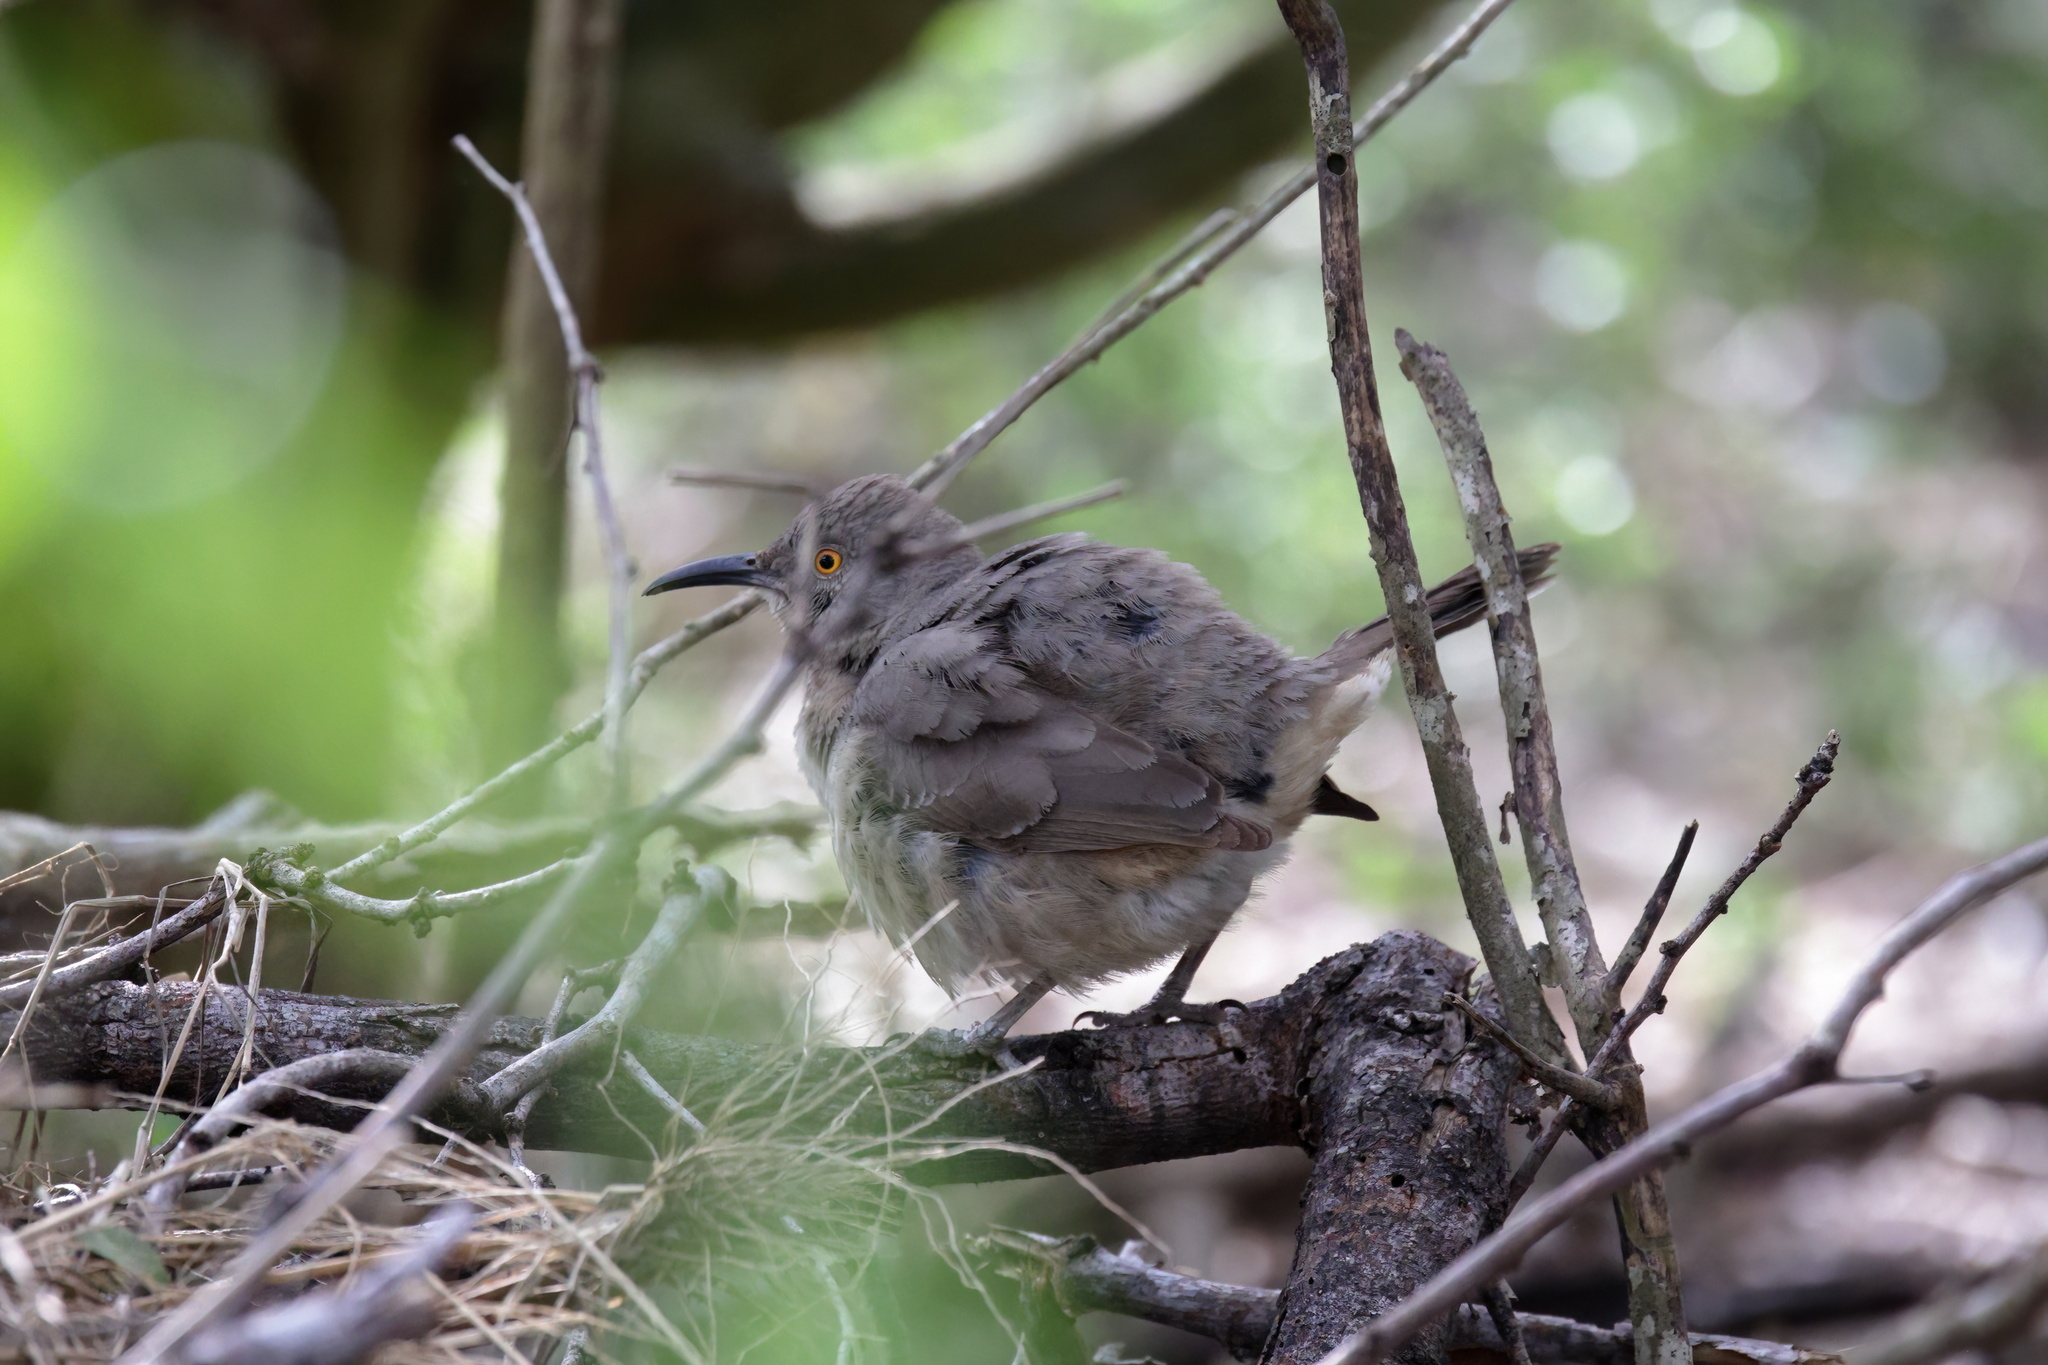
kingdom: Animalia
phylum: Chordata
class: Aves
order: Passeriformes
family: Mimidae
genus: Toxostoma
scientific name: Toxostoma curvirostre
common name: Curve-billed thrasher
